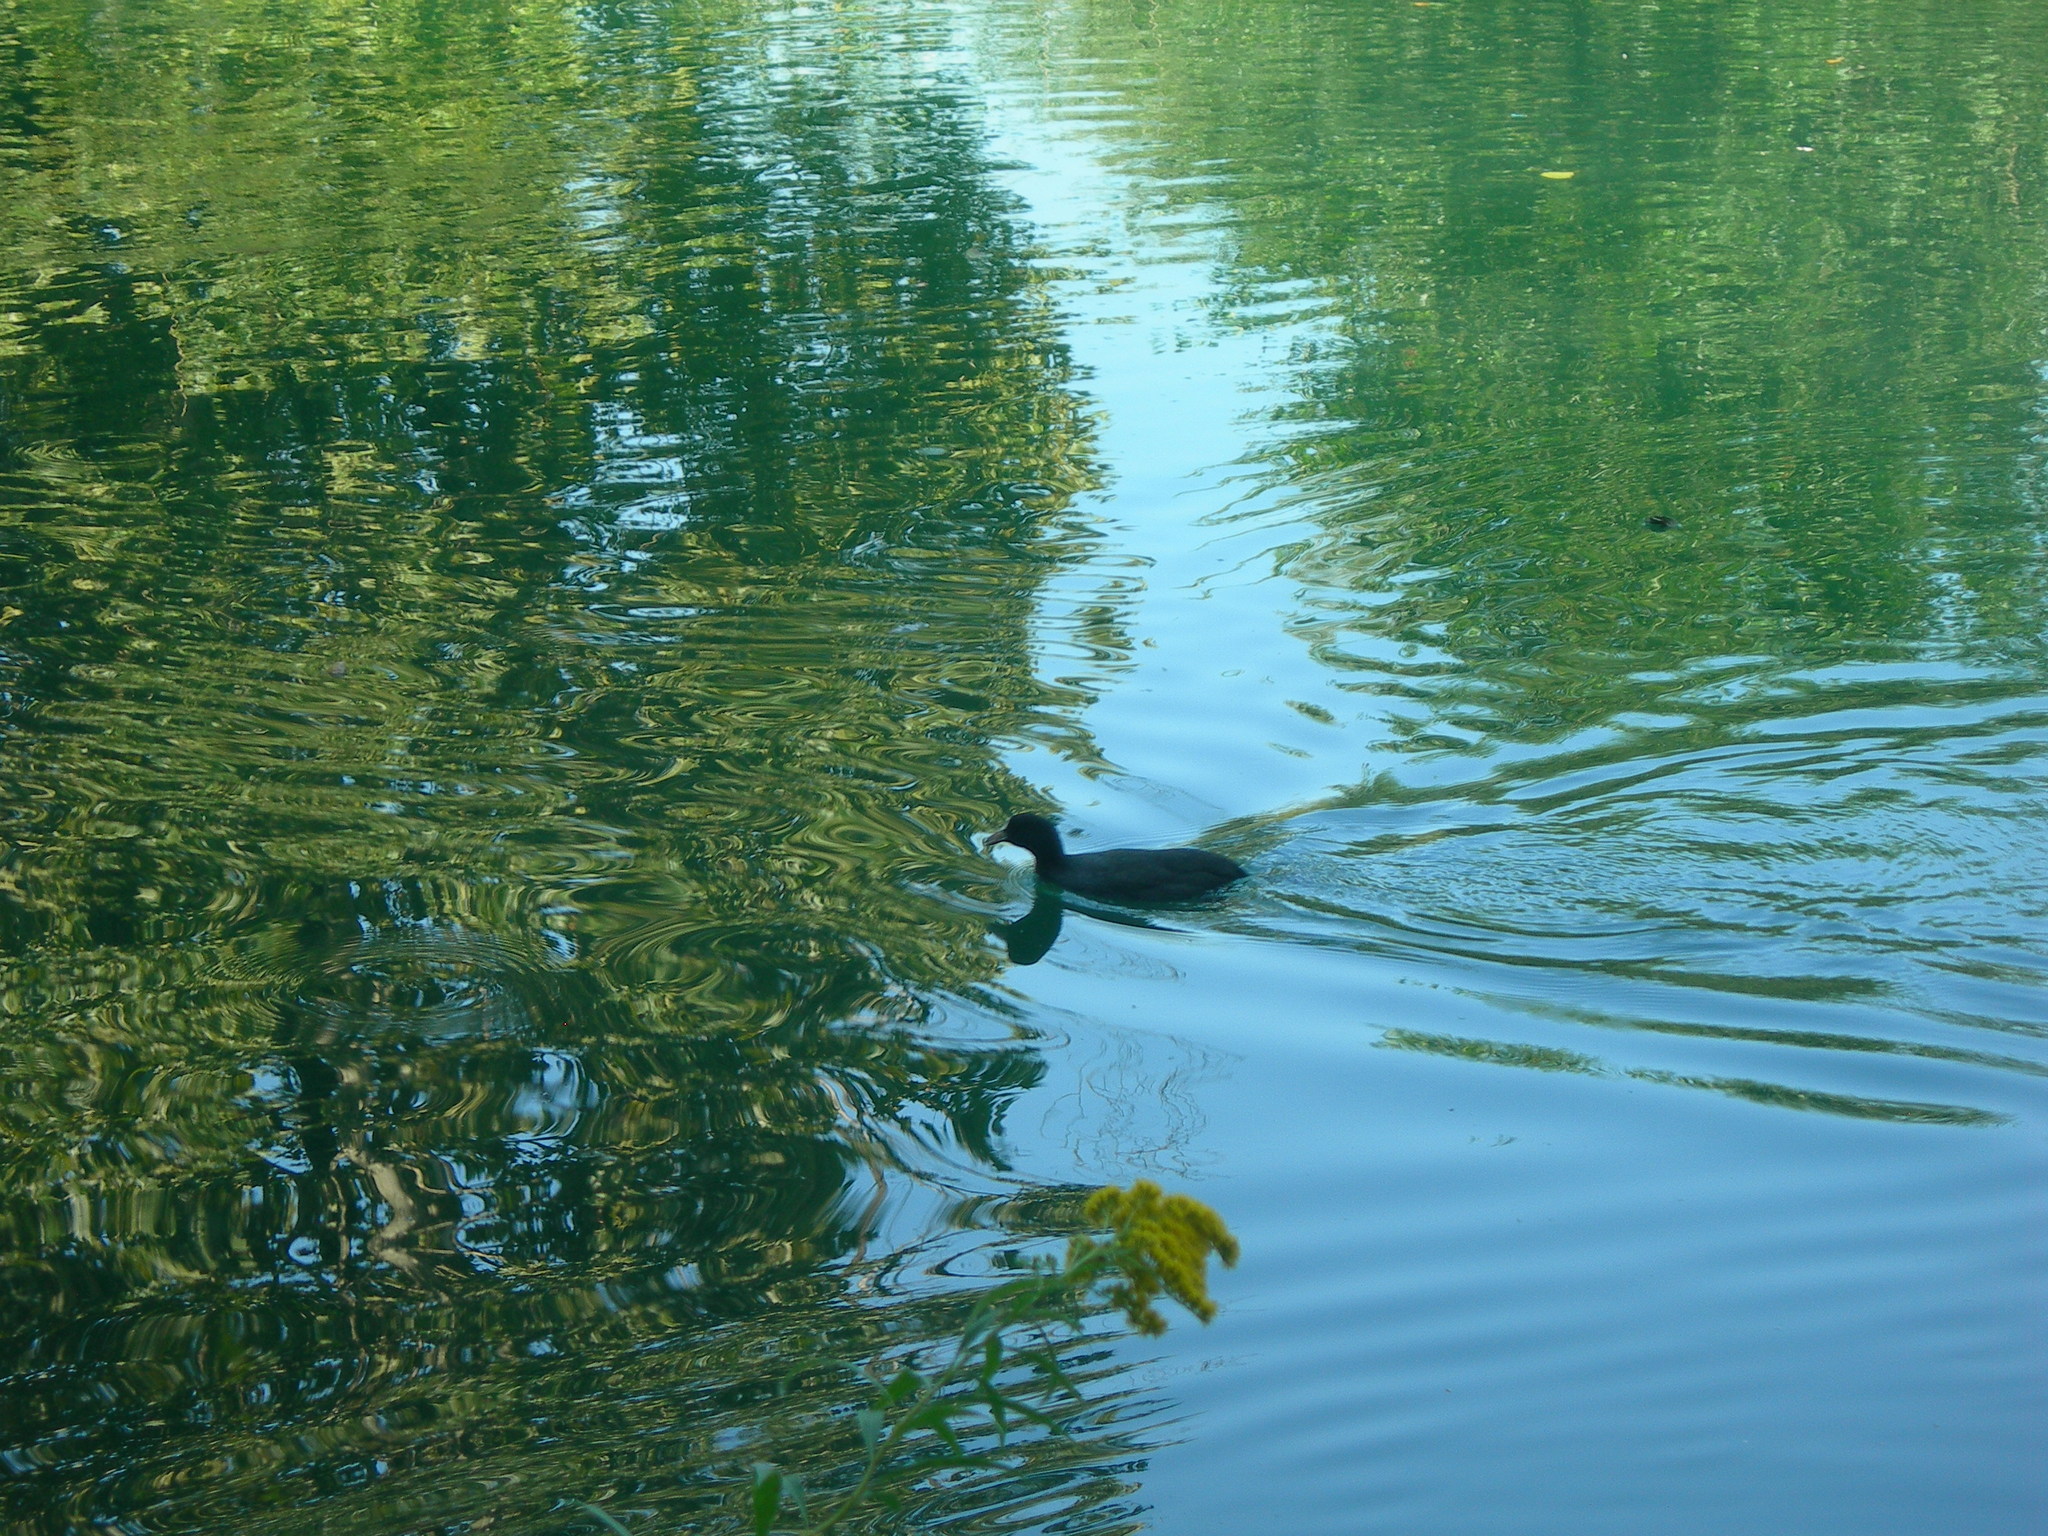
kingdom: Animalia
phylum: Chordata
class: Aves
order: Gruiformes
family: Rallidae
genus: Fulica
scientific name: Fulica atra
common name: Eurasian coot
